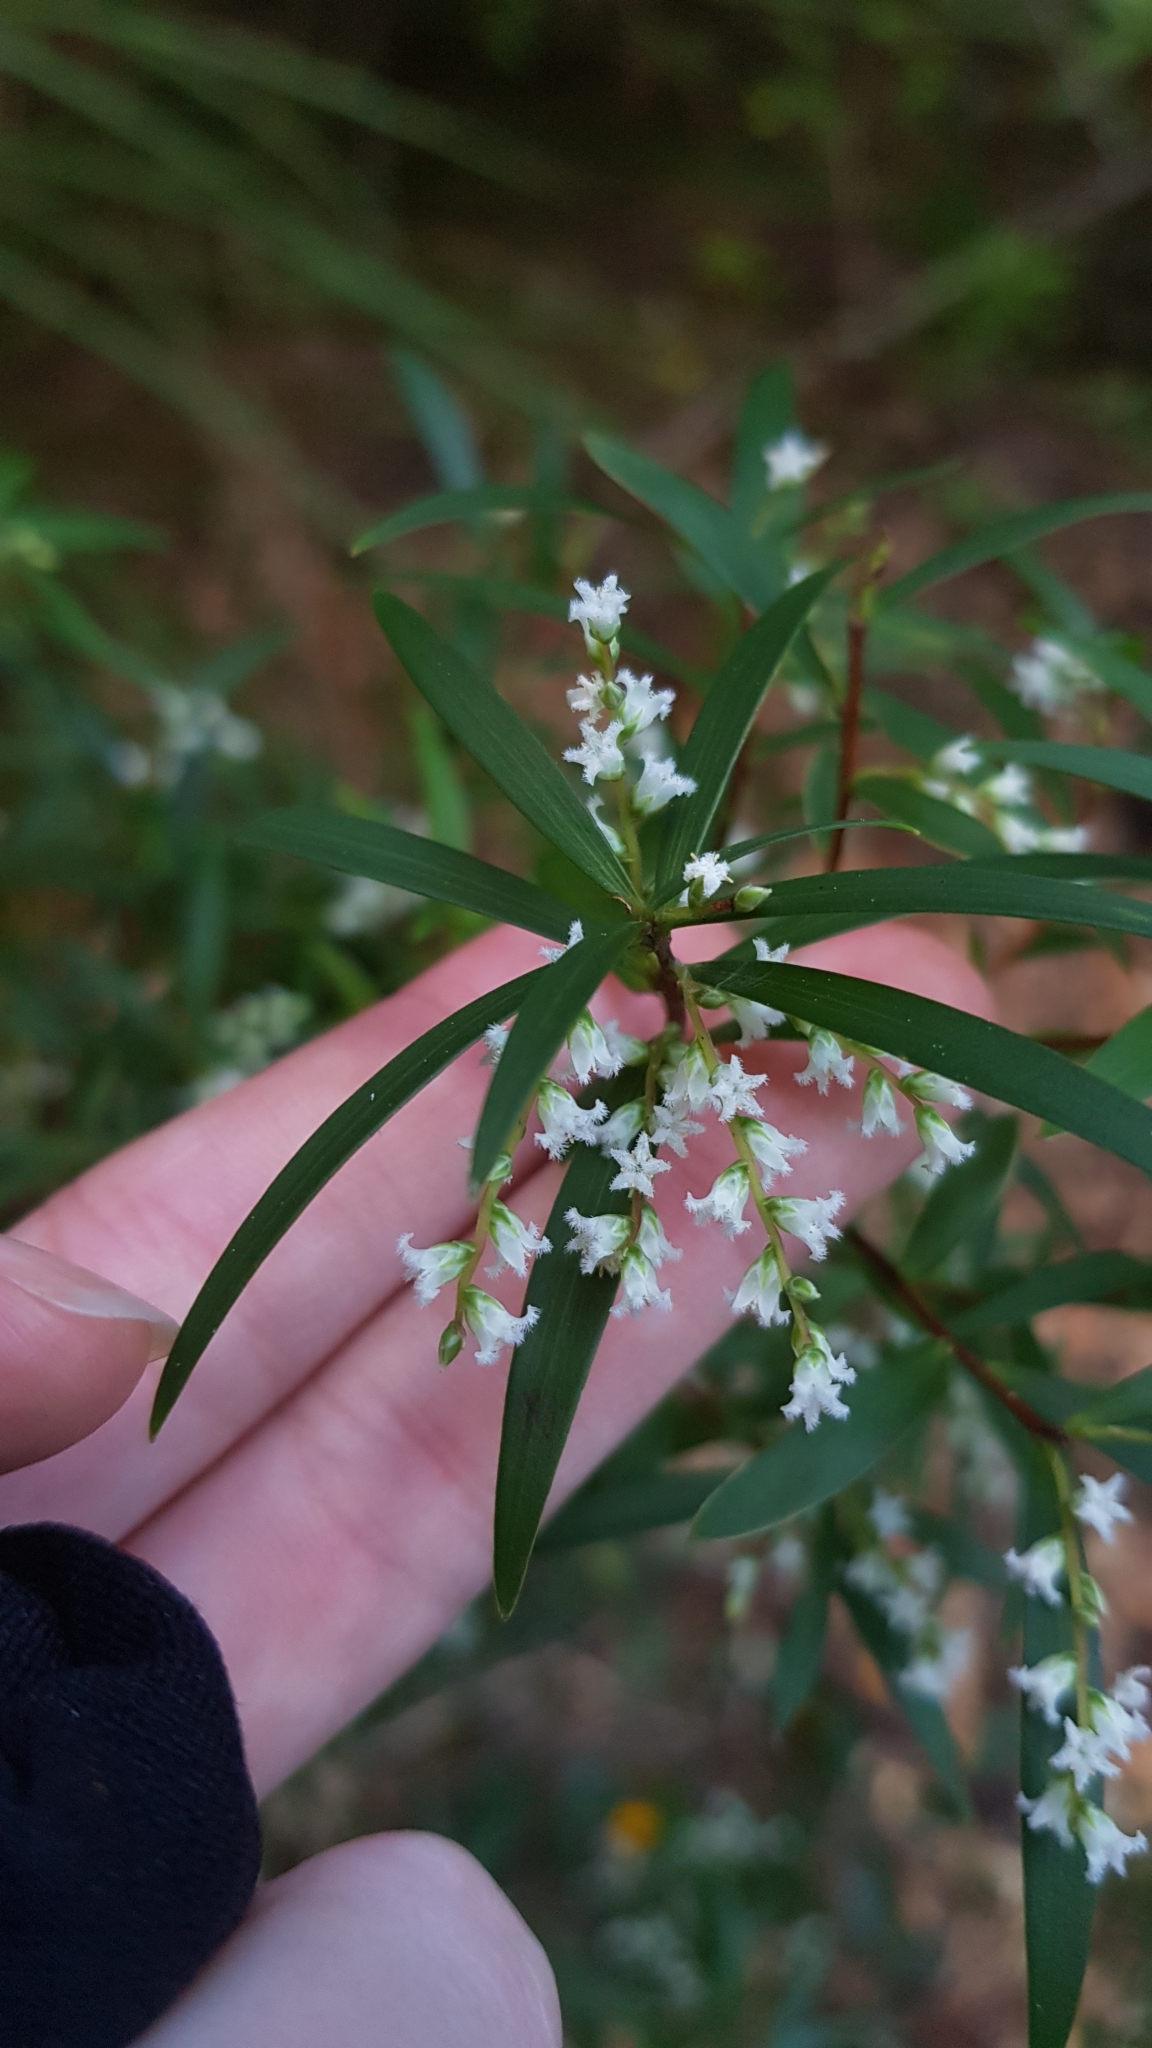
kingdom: Plantae
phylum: Tracheophyta
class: Magnoliopsida
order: Ericales
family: Ericaceae
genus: Leucopogon
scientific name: Leucopogon lanceolatus
